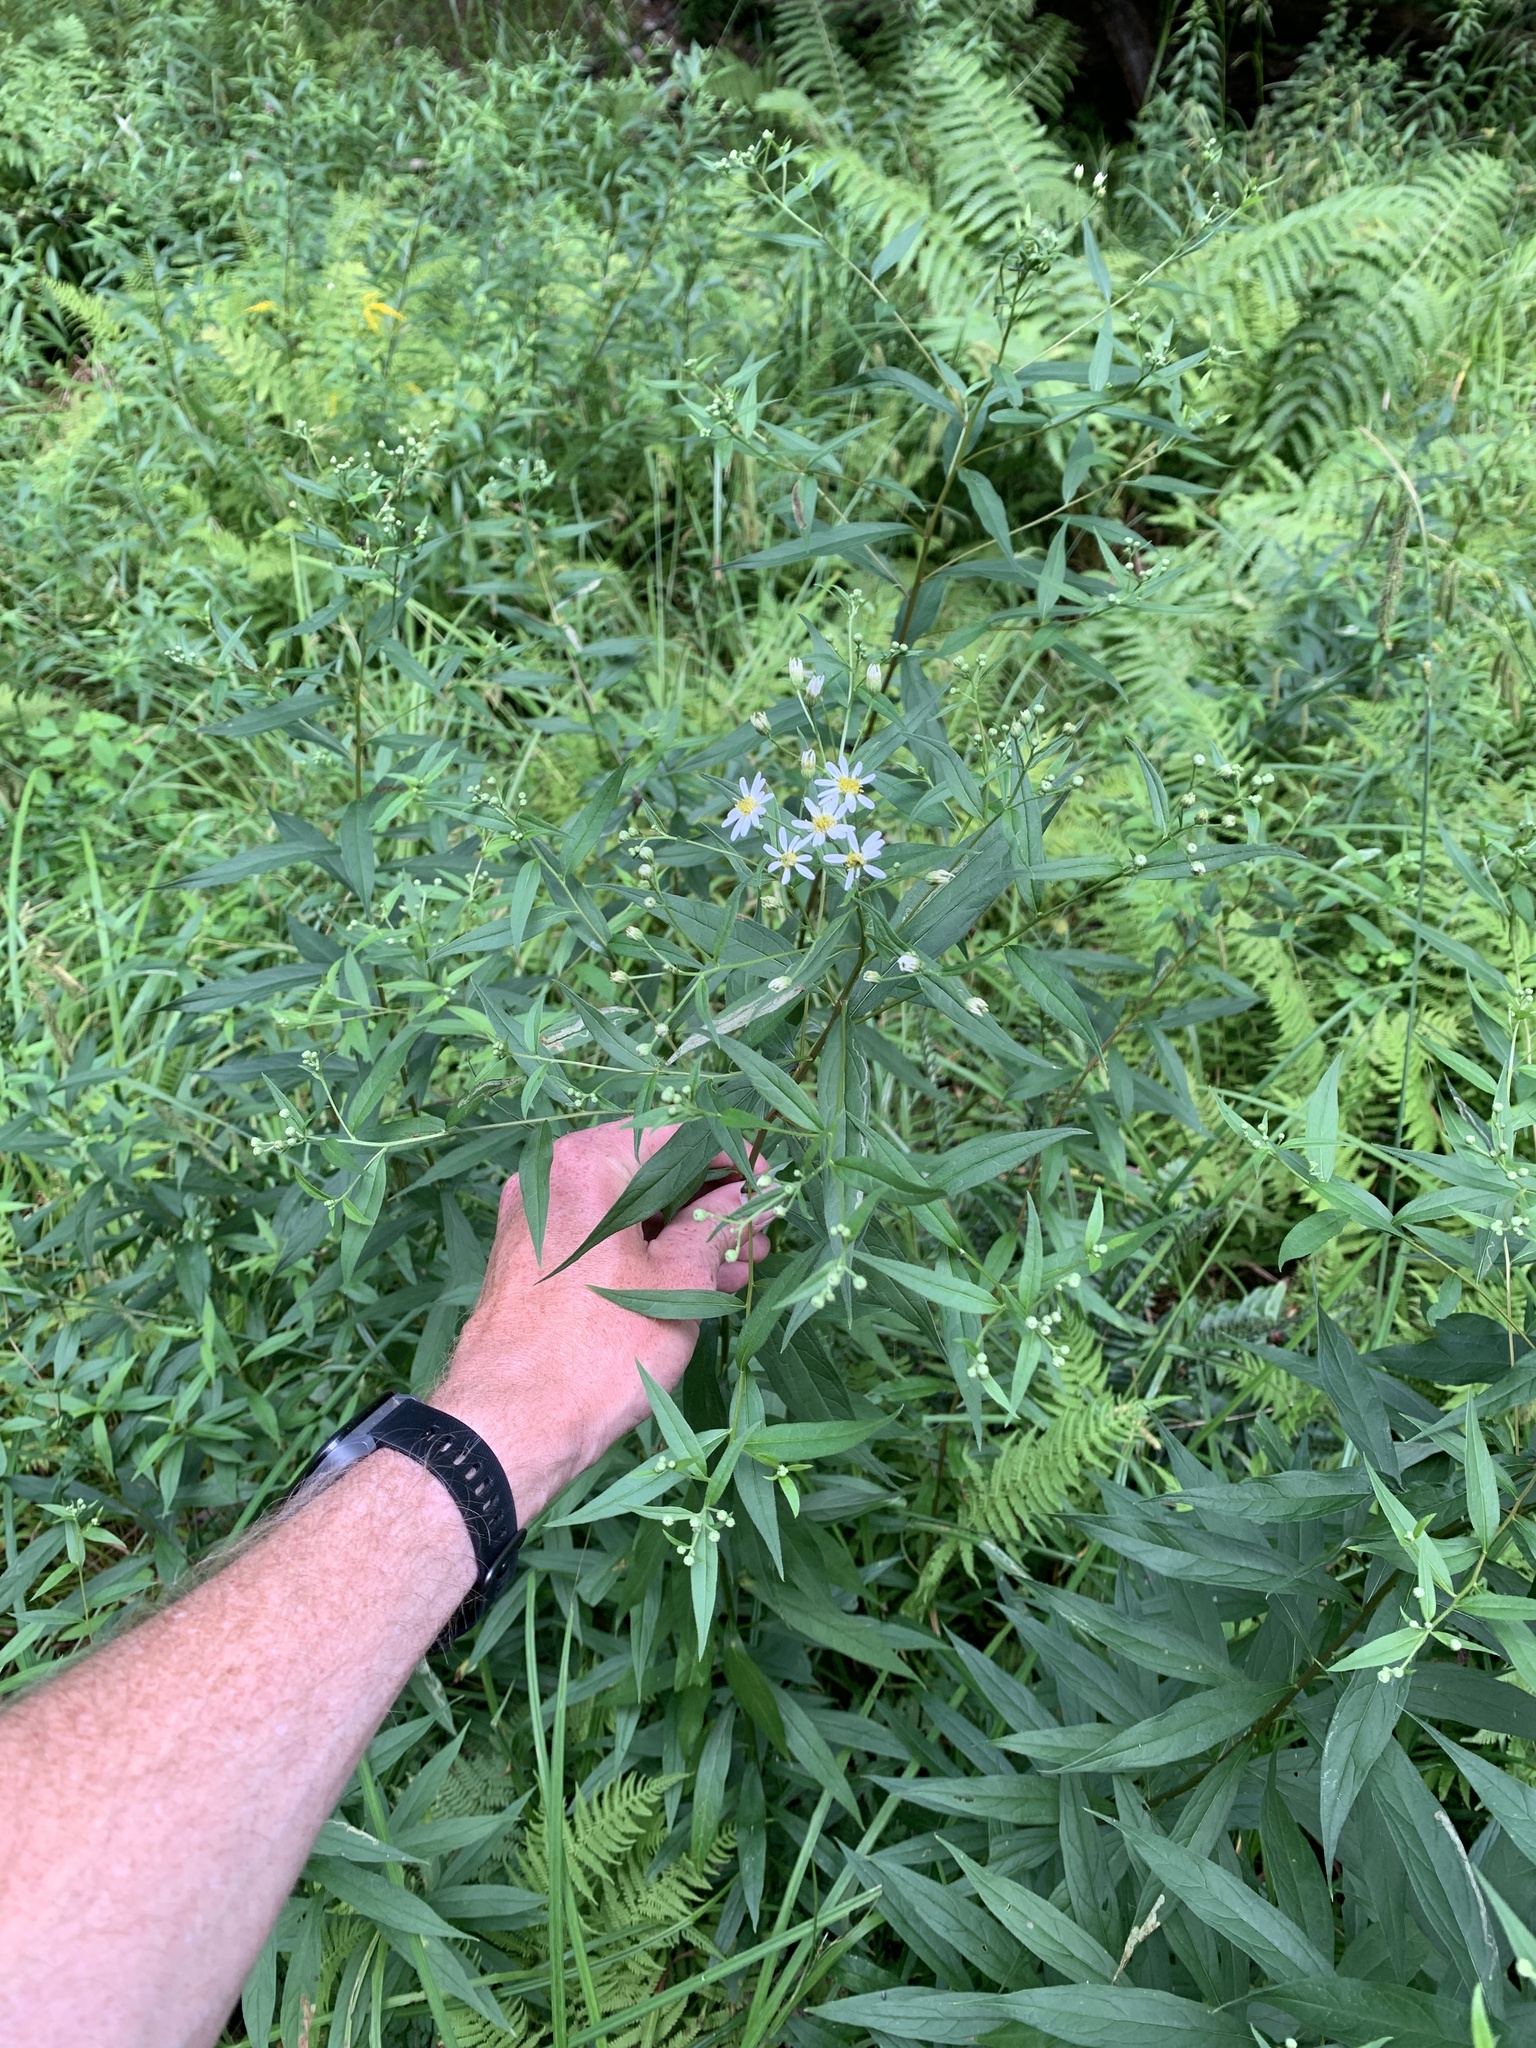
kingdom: Plantae
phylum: Tracheophyta
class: Magnoliopsida
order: Asterales
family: Asteraceae
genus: Doellingeria
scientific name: Doellingeria umbellata
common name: Flat-top white aster
